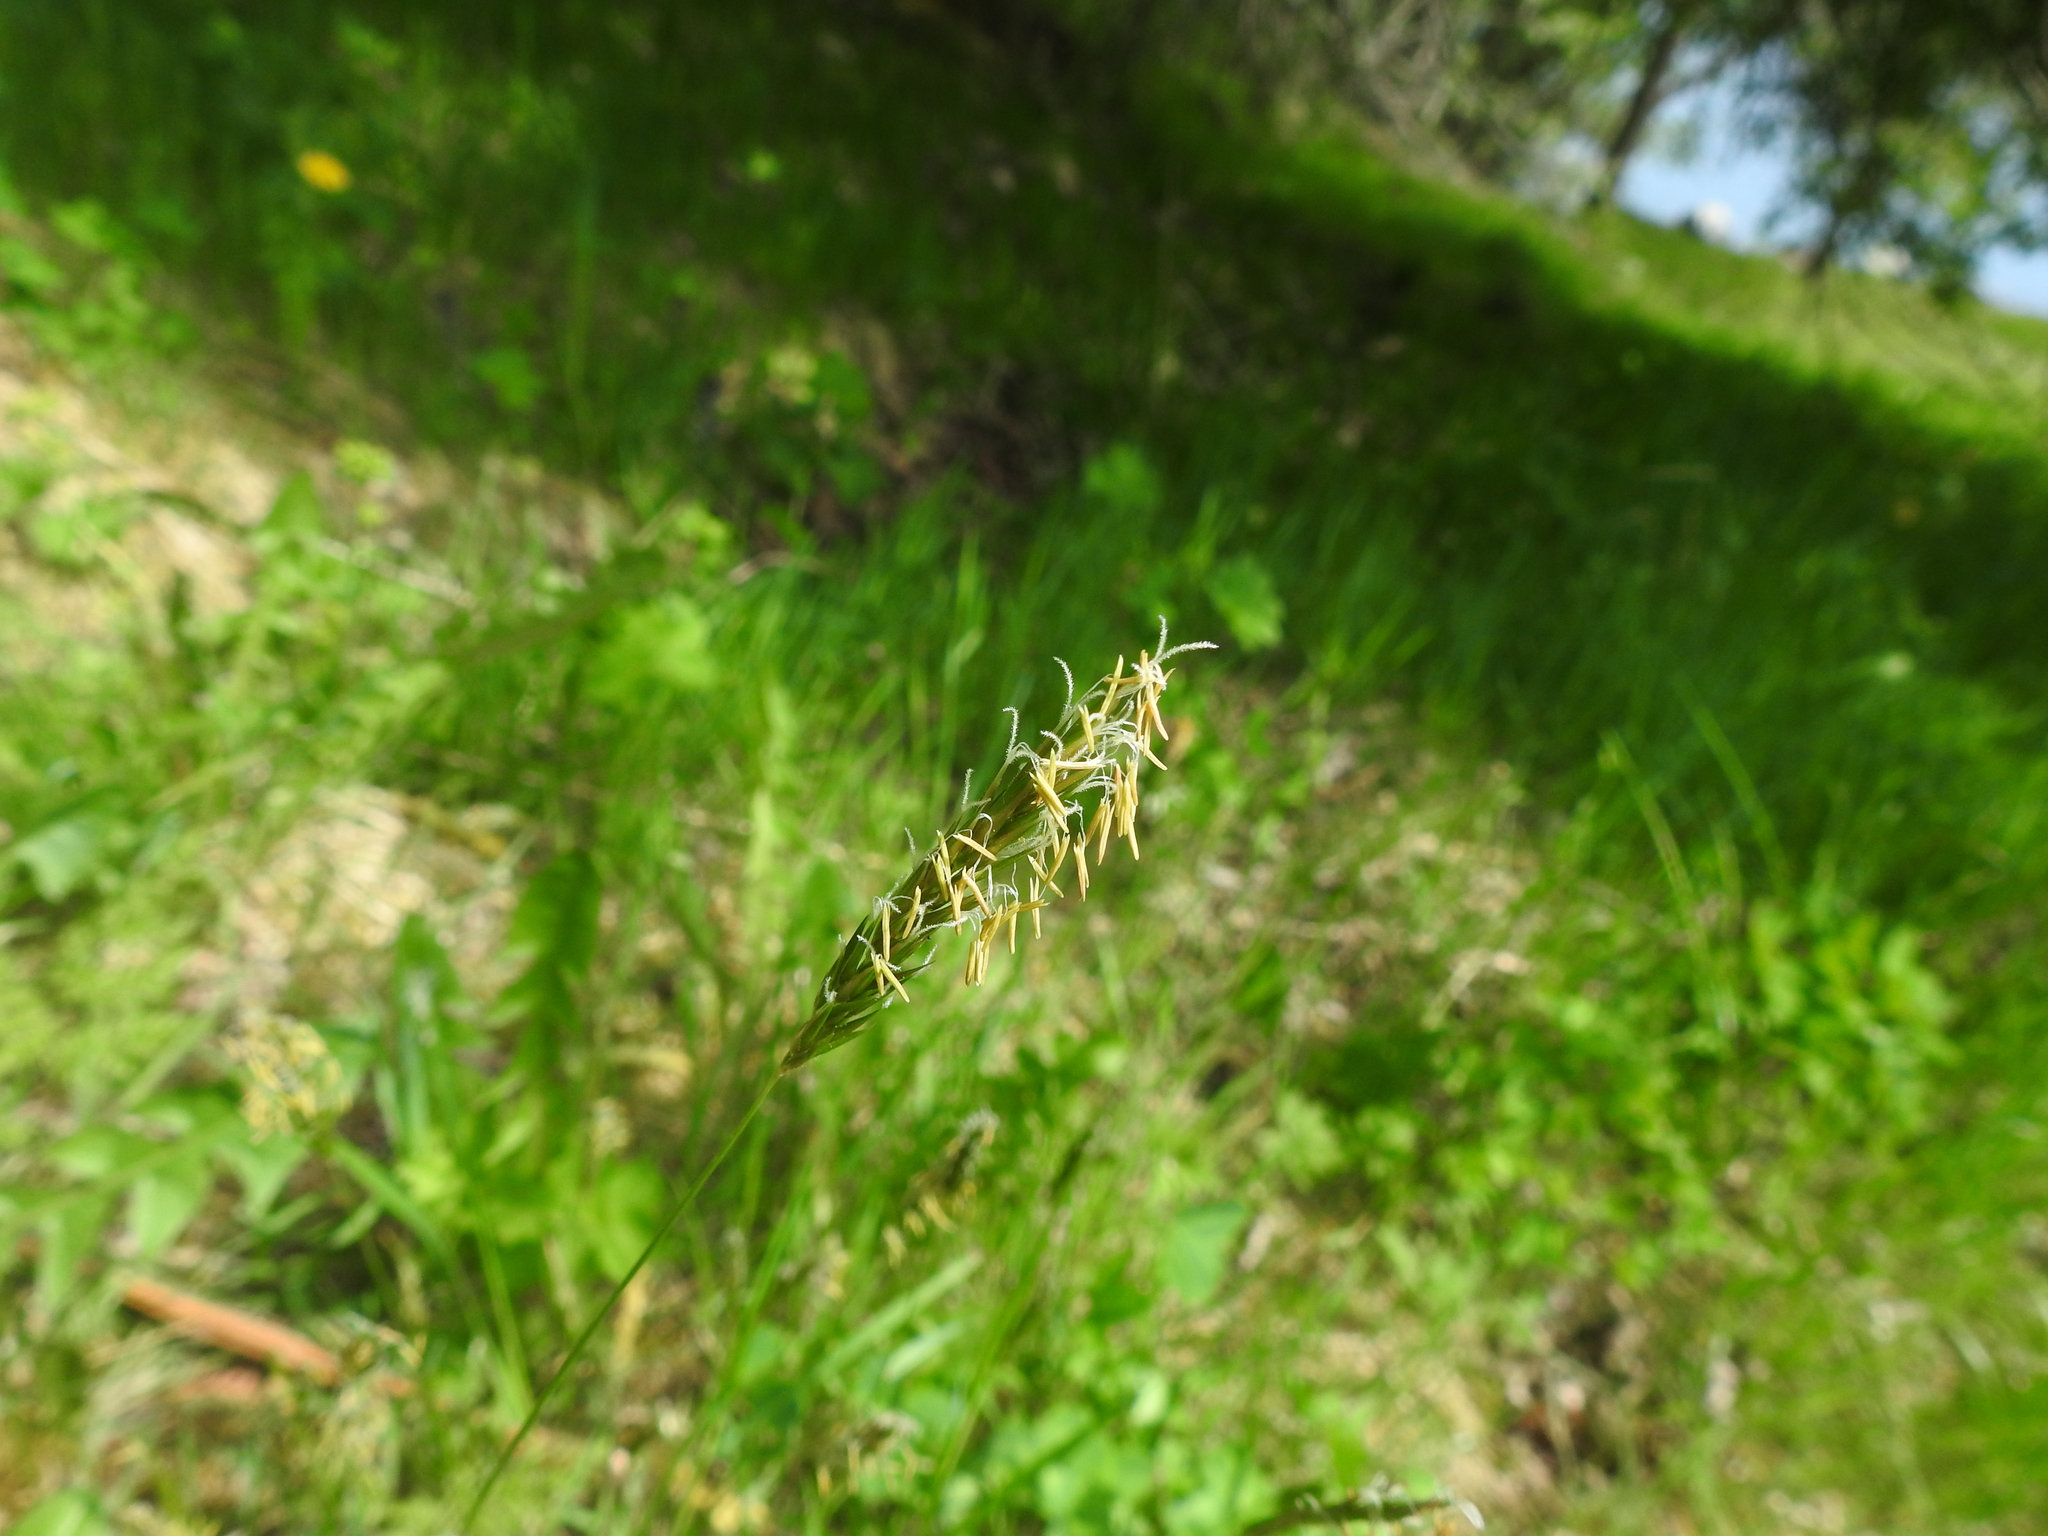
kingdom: Plantae
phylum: Tracheophyta
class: Liliopsida
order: Poales
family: Poaceae
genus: Anthoxanthum
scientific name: Anthoxanthum odoratum
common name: Sweet vernalgrass
